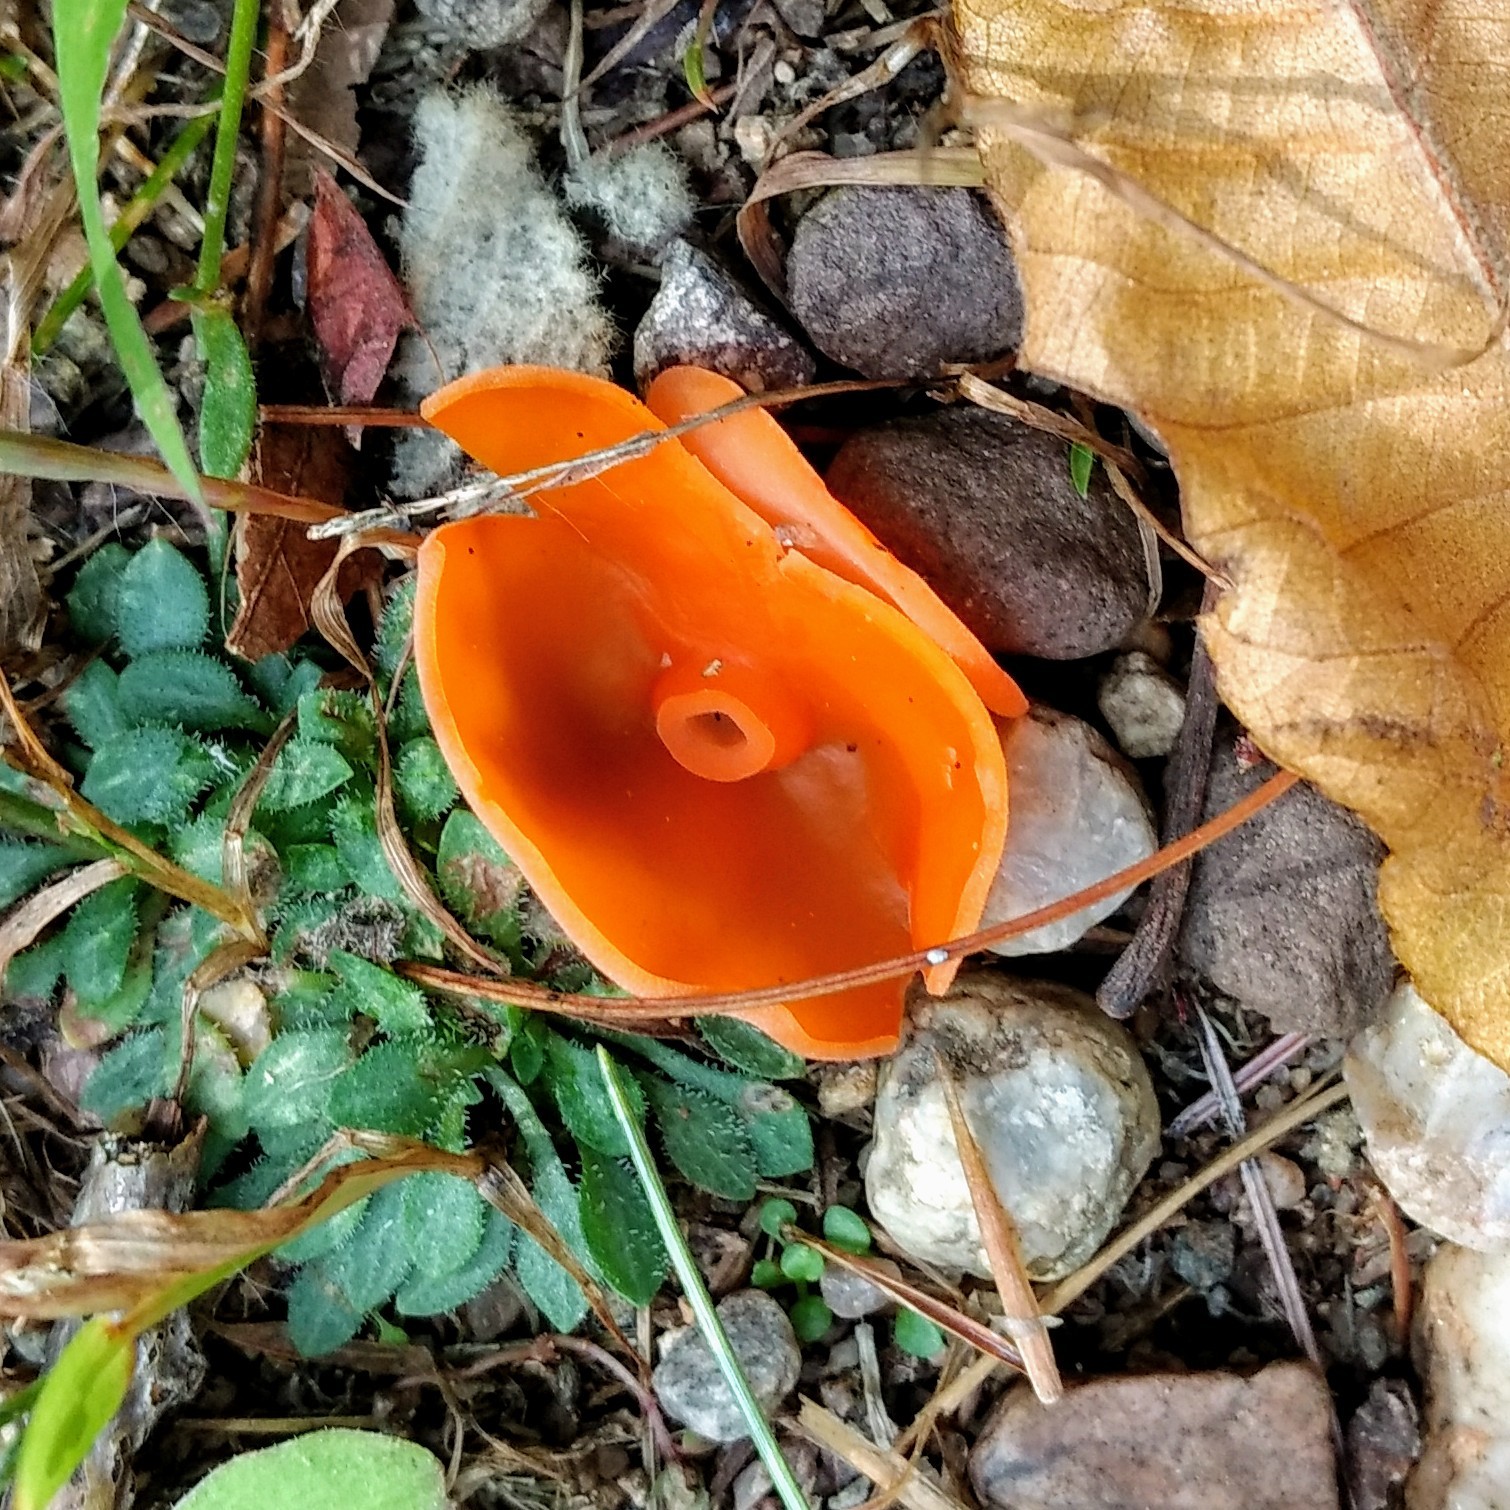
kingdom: Fungi
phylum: Ascomycota
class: Pezizomycetes
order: Pezizales
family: Pyronemataceae
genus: Aleuria
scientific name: Aleuria aurantia
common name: Orange peel fungus
